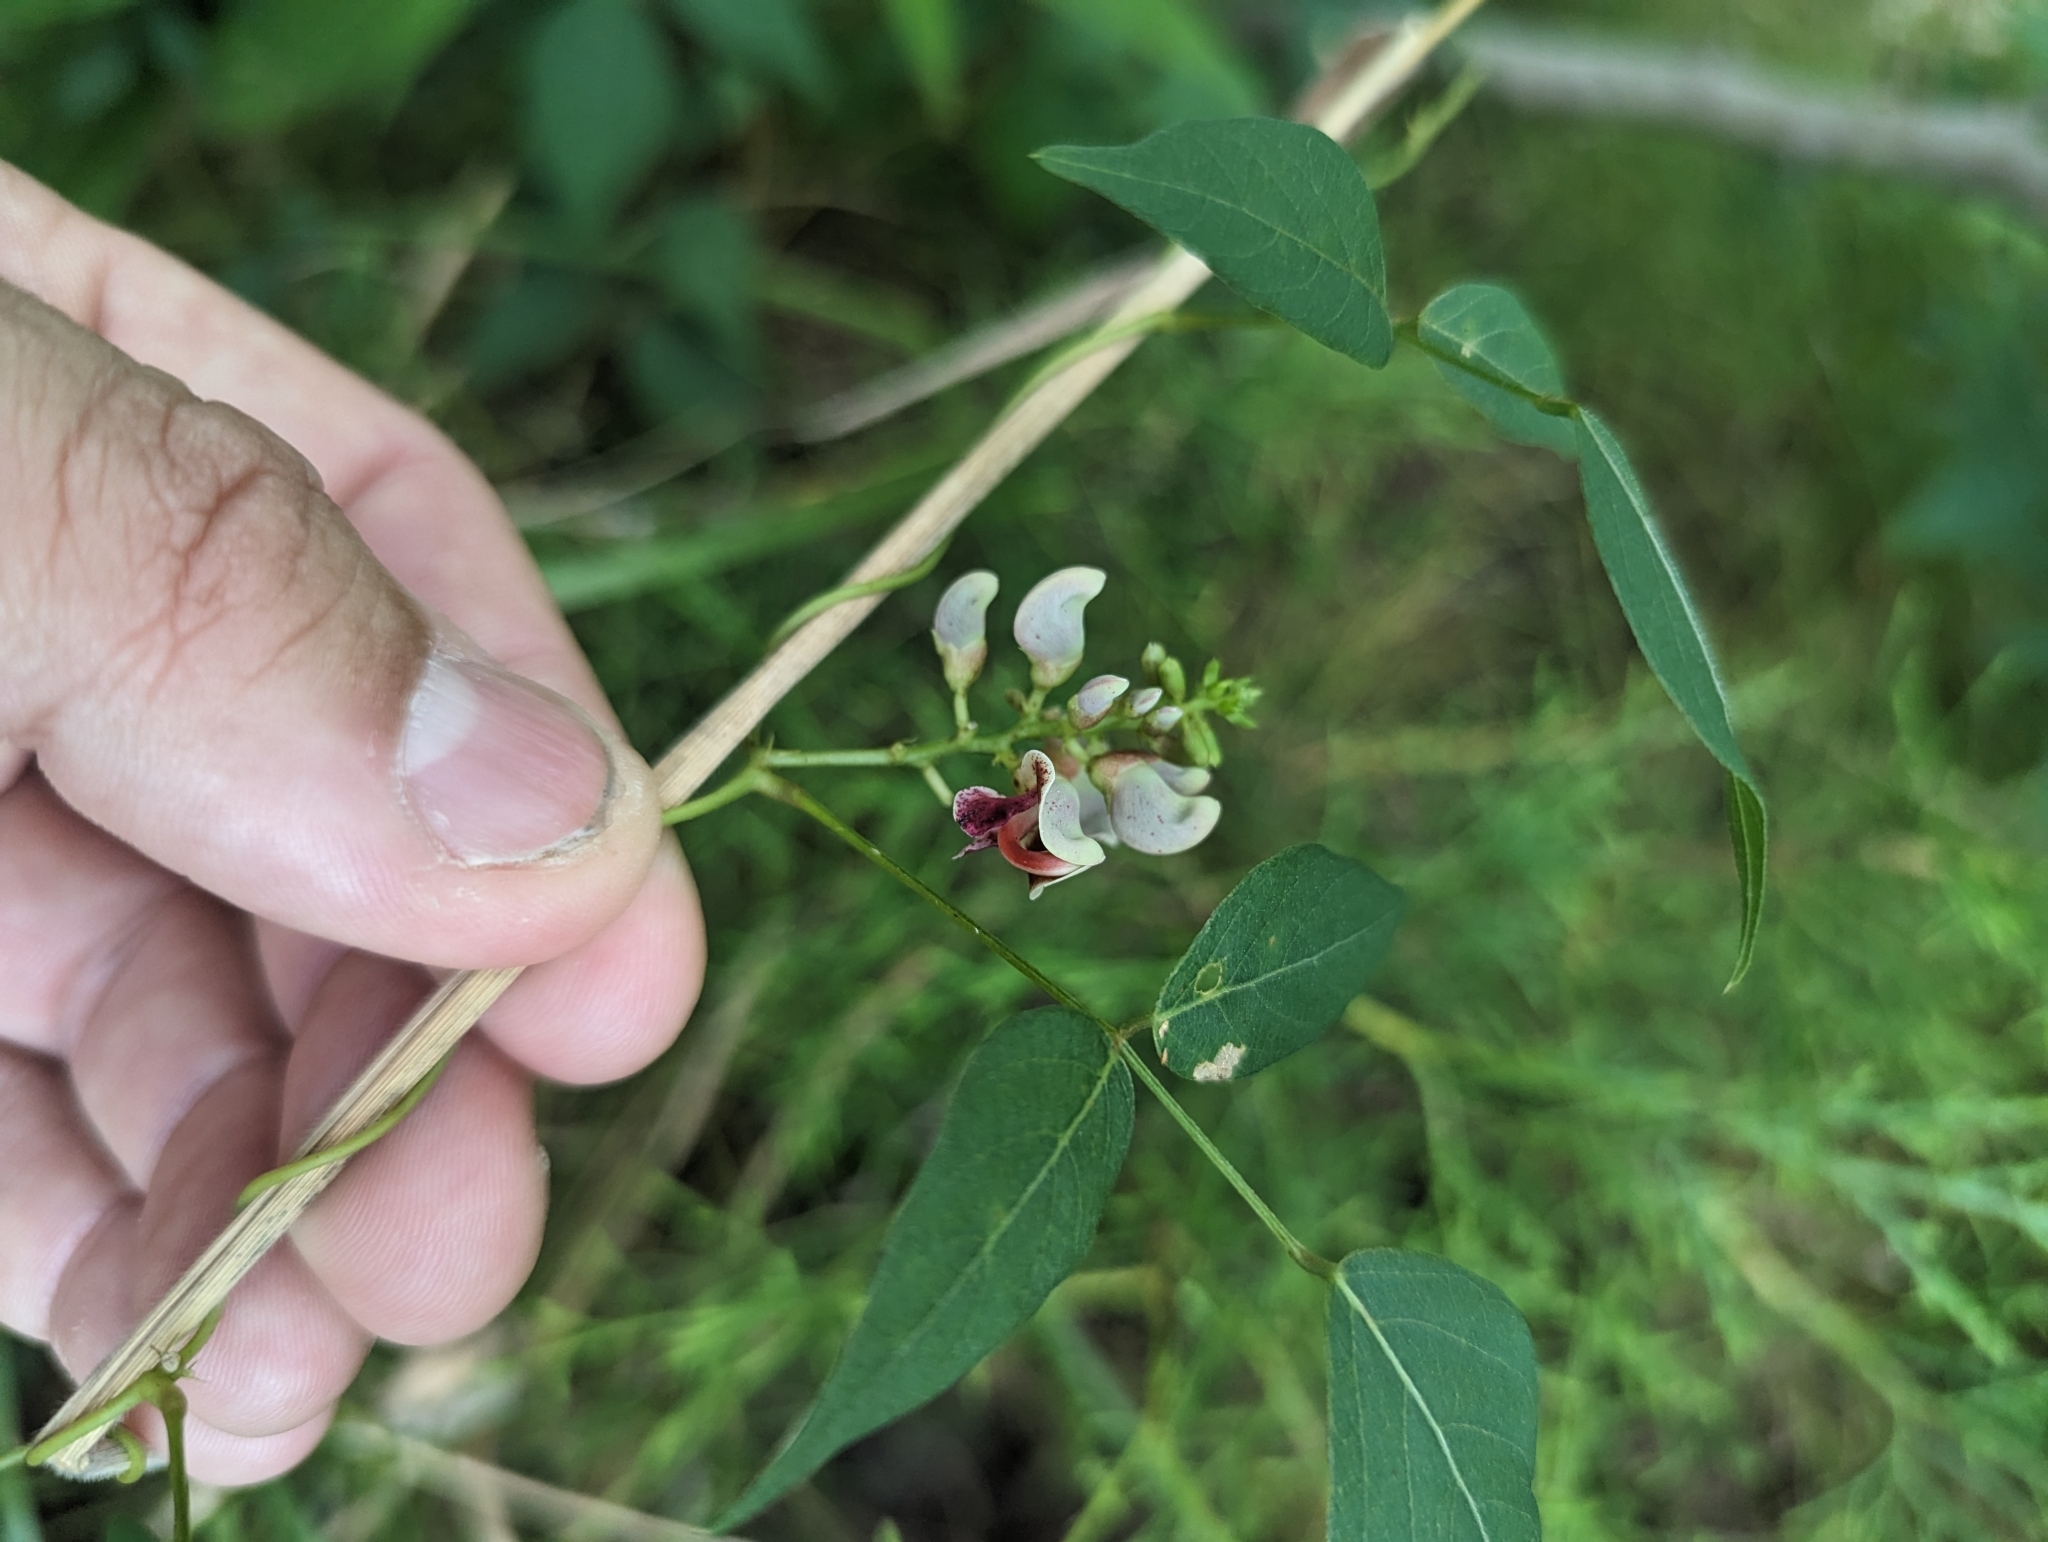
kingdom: Plantae
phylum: Tracheophyta
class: Magnoliopsida
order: Fabales
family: Fabaceae
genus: Apios
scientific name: Apios americana
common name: American potato-bean
